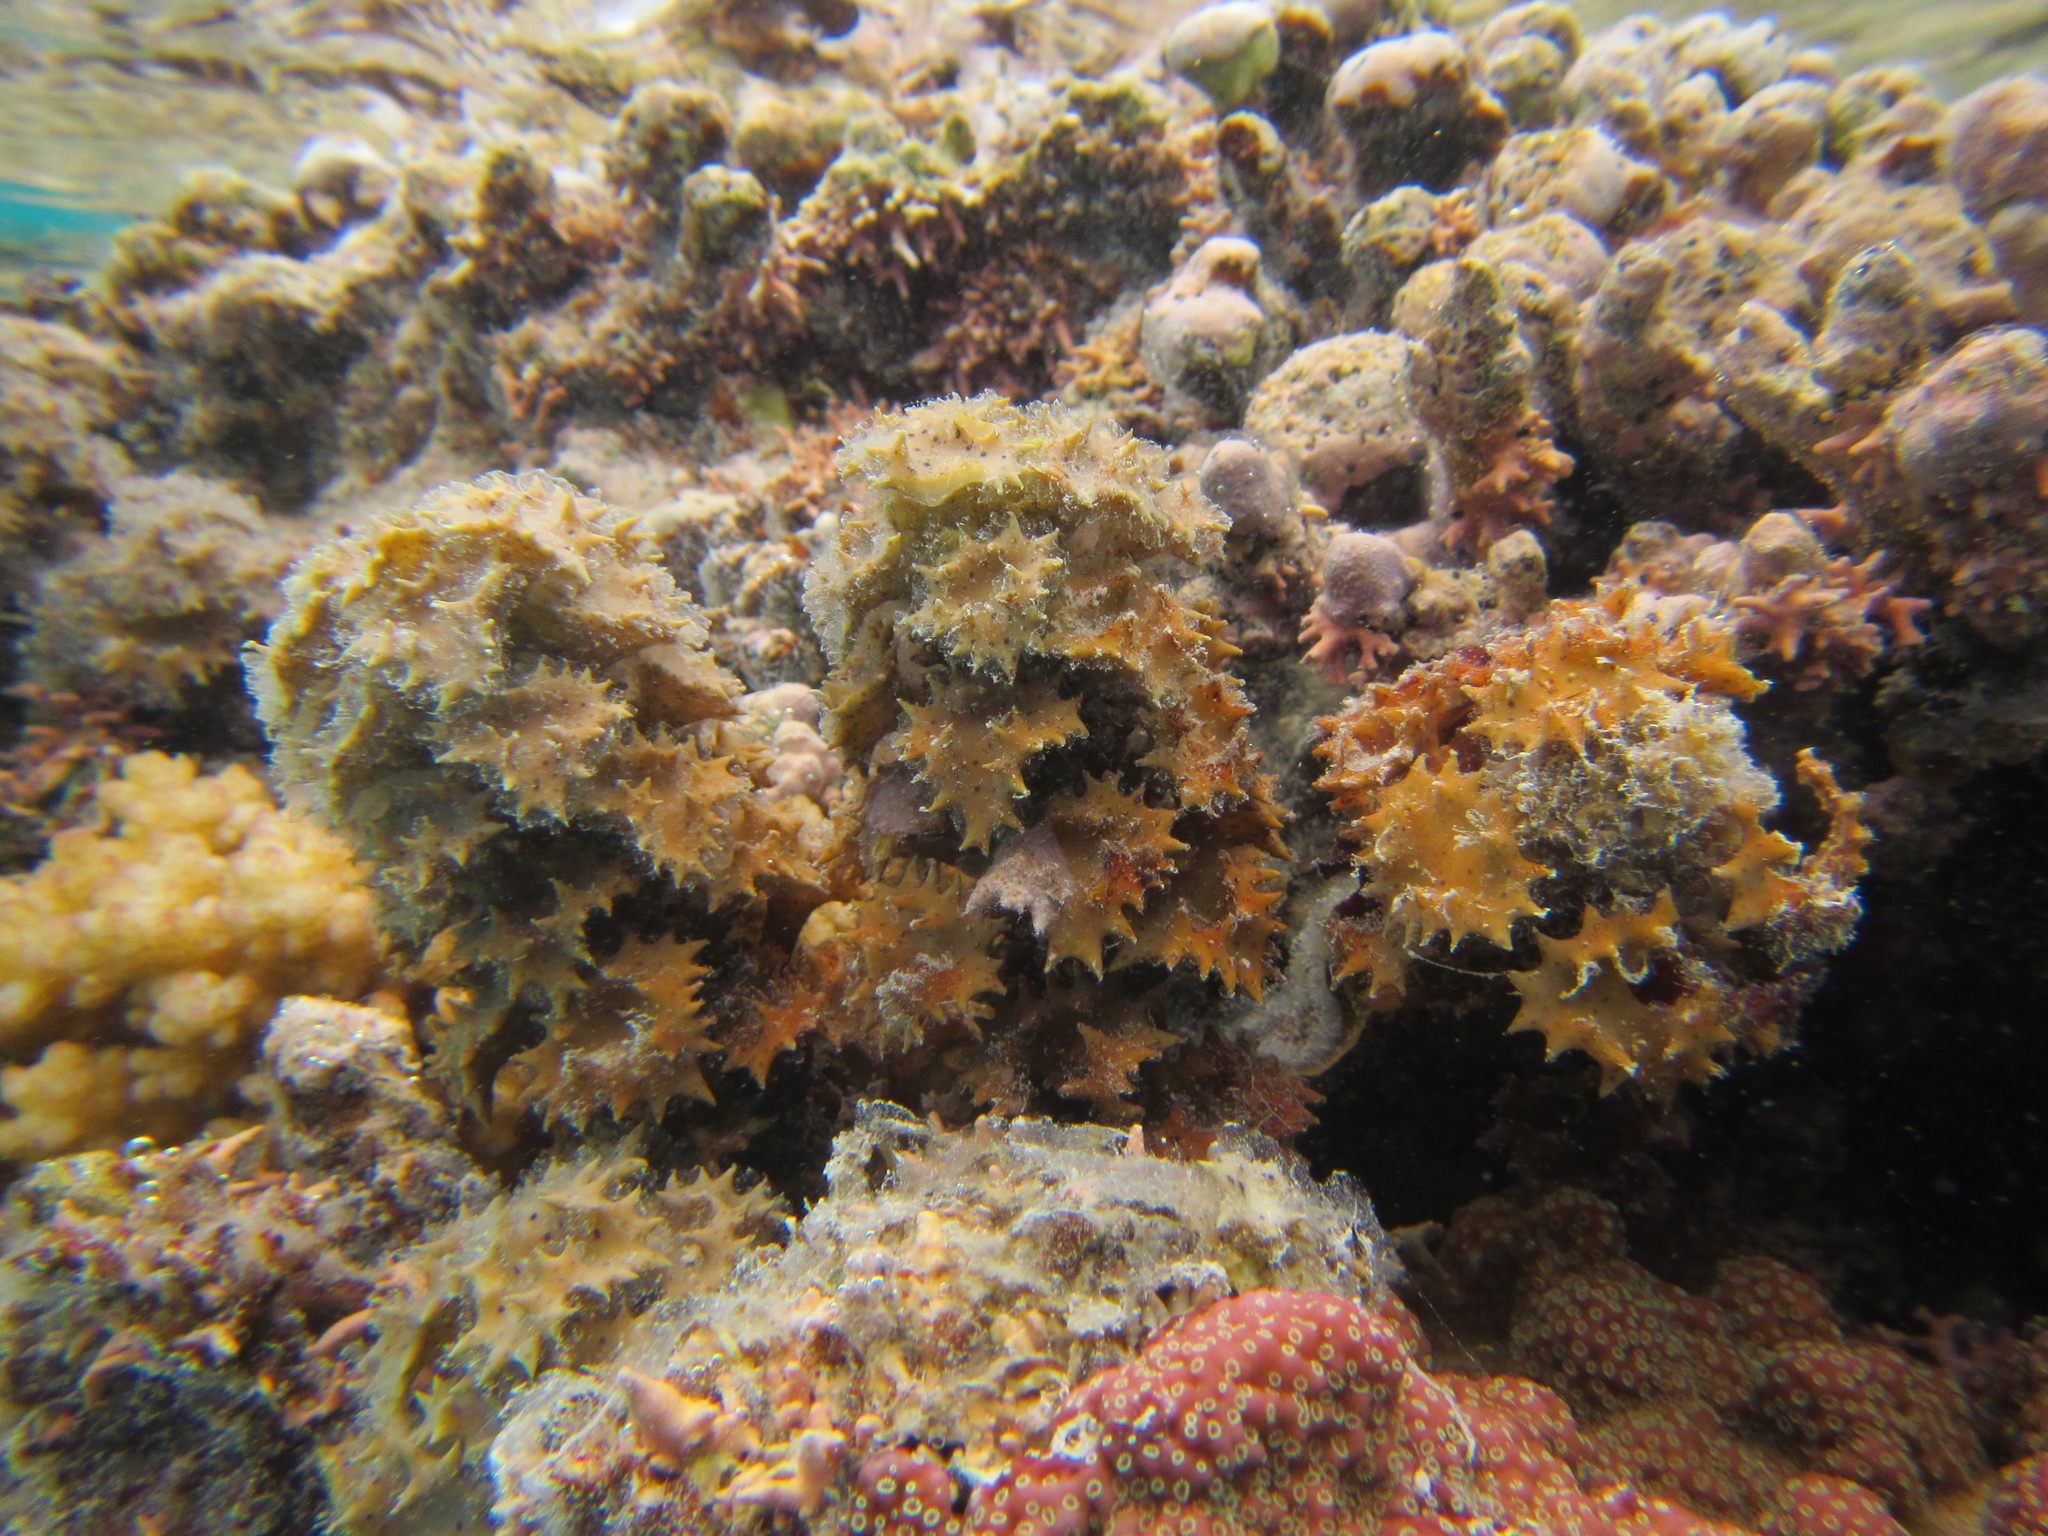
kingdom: Chromista
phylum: Ochrophyta
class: Phaeophyceae
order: Fucales
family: Sargassaceae
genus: Turbinaria
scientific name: Turbinaria ornata
